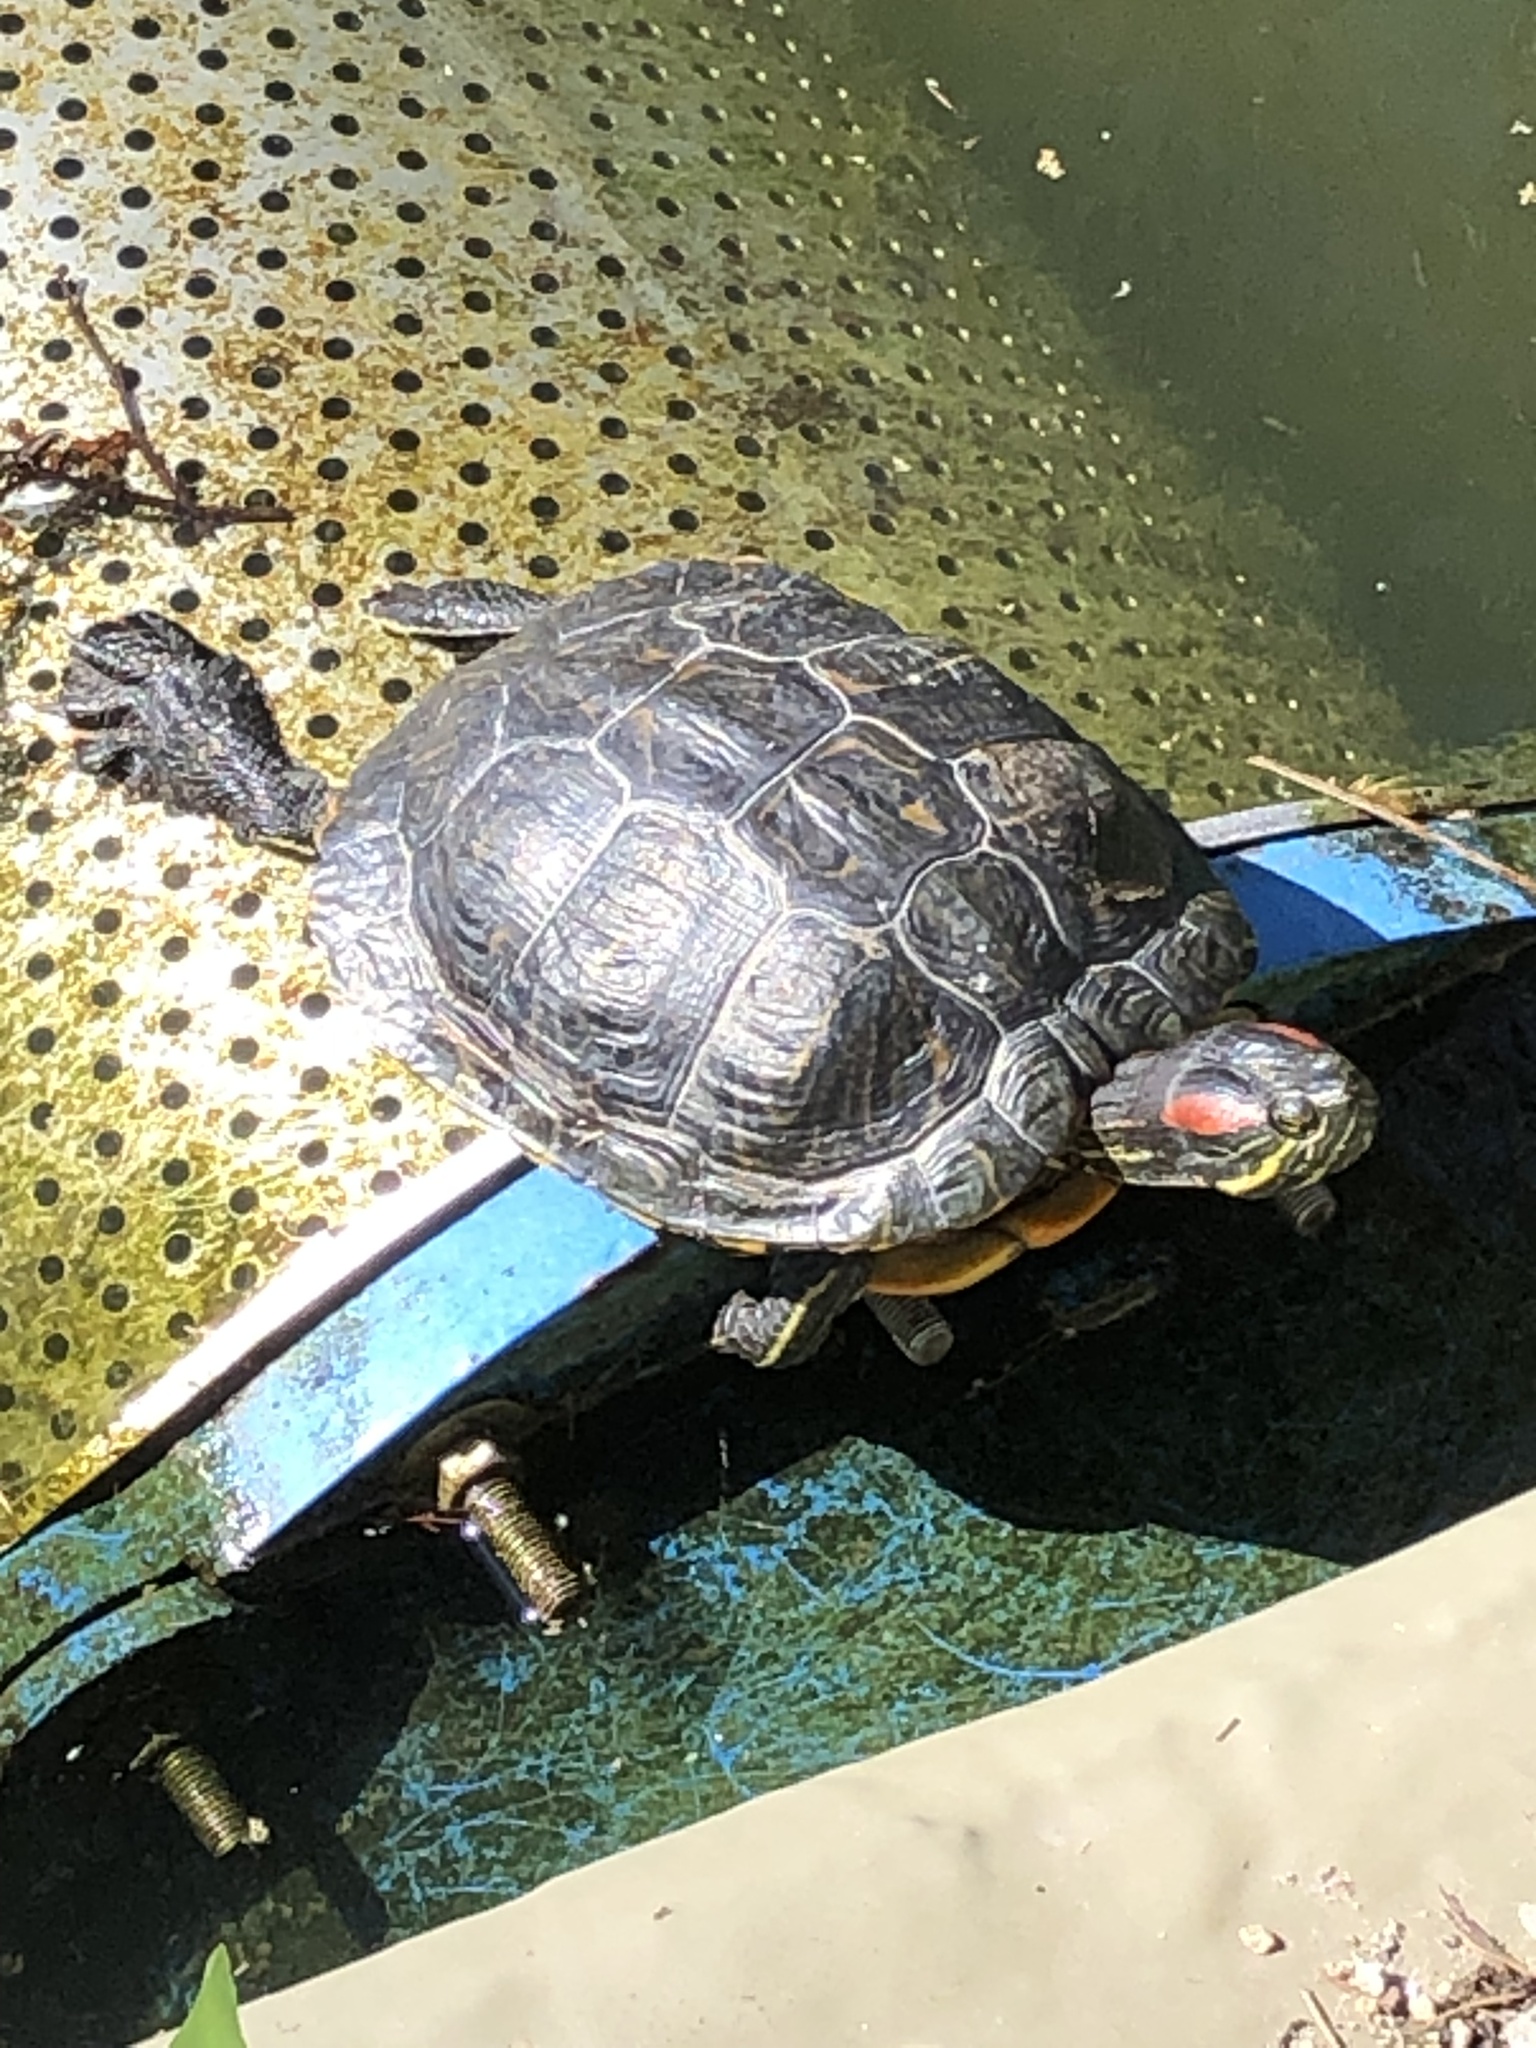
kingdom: Animalia
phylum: Chordata
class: Testudines
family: Emydidae
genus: Trachemys
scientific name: Trachemys scripta
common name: Slider
